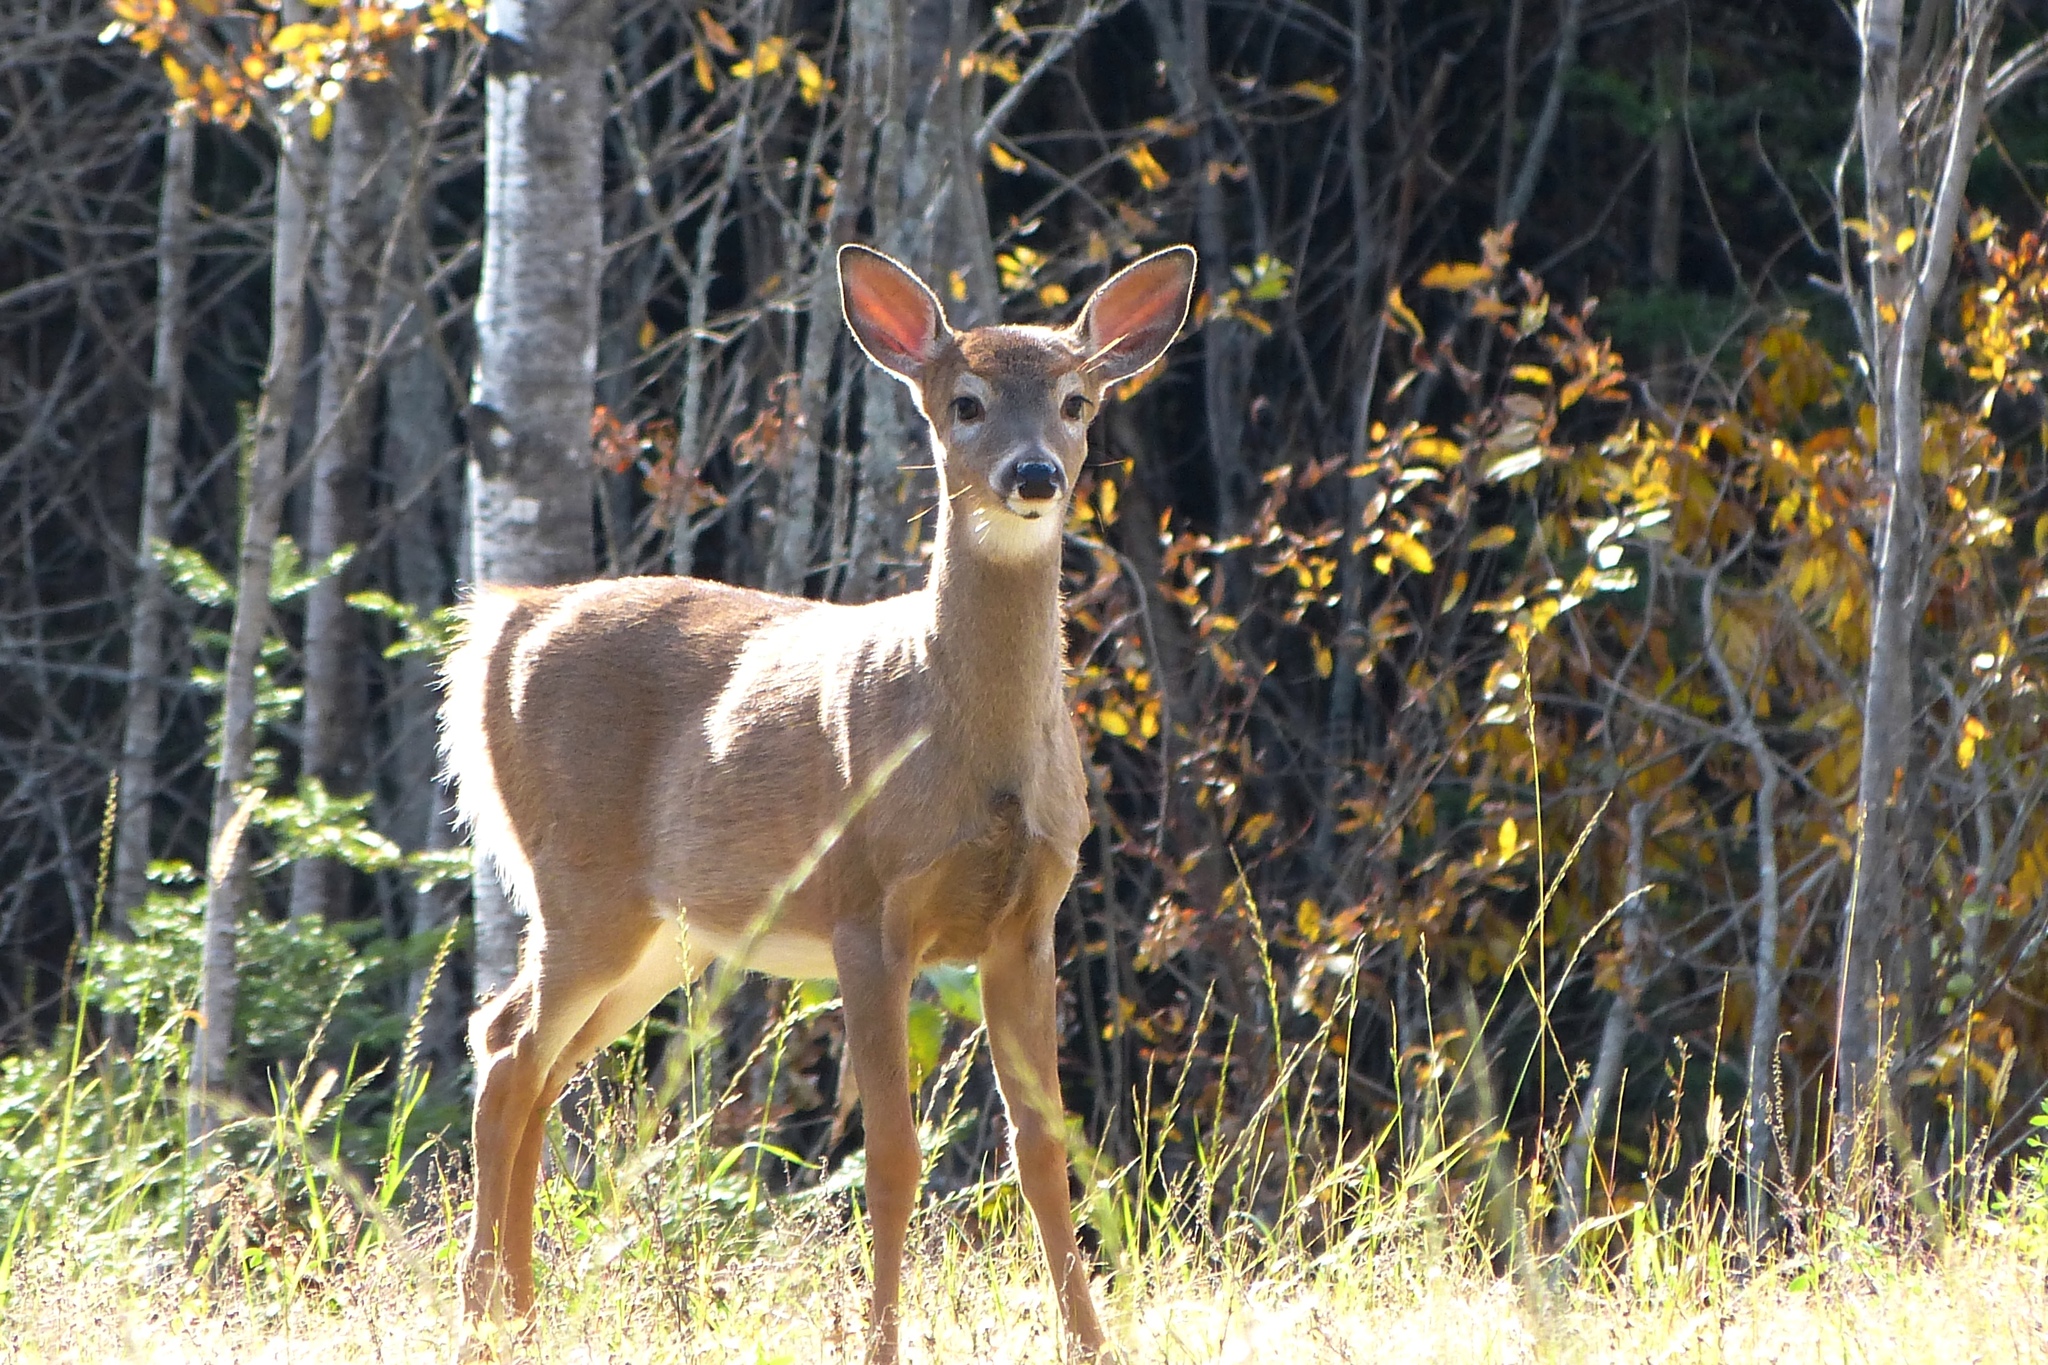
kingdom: Animalia
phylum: Chordata
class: Mammalia
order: Artiodactyla
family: Cervidae
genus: Odocoileus
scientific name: Odocoileus virginianus
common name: White-tailed deer
